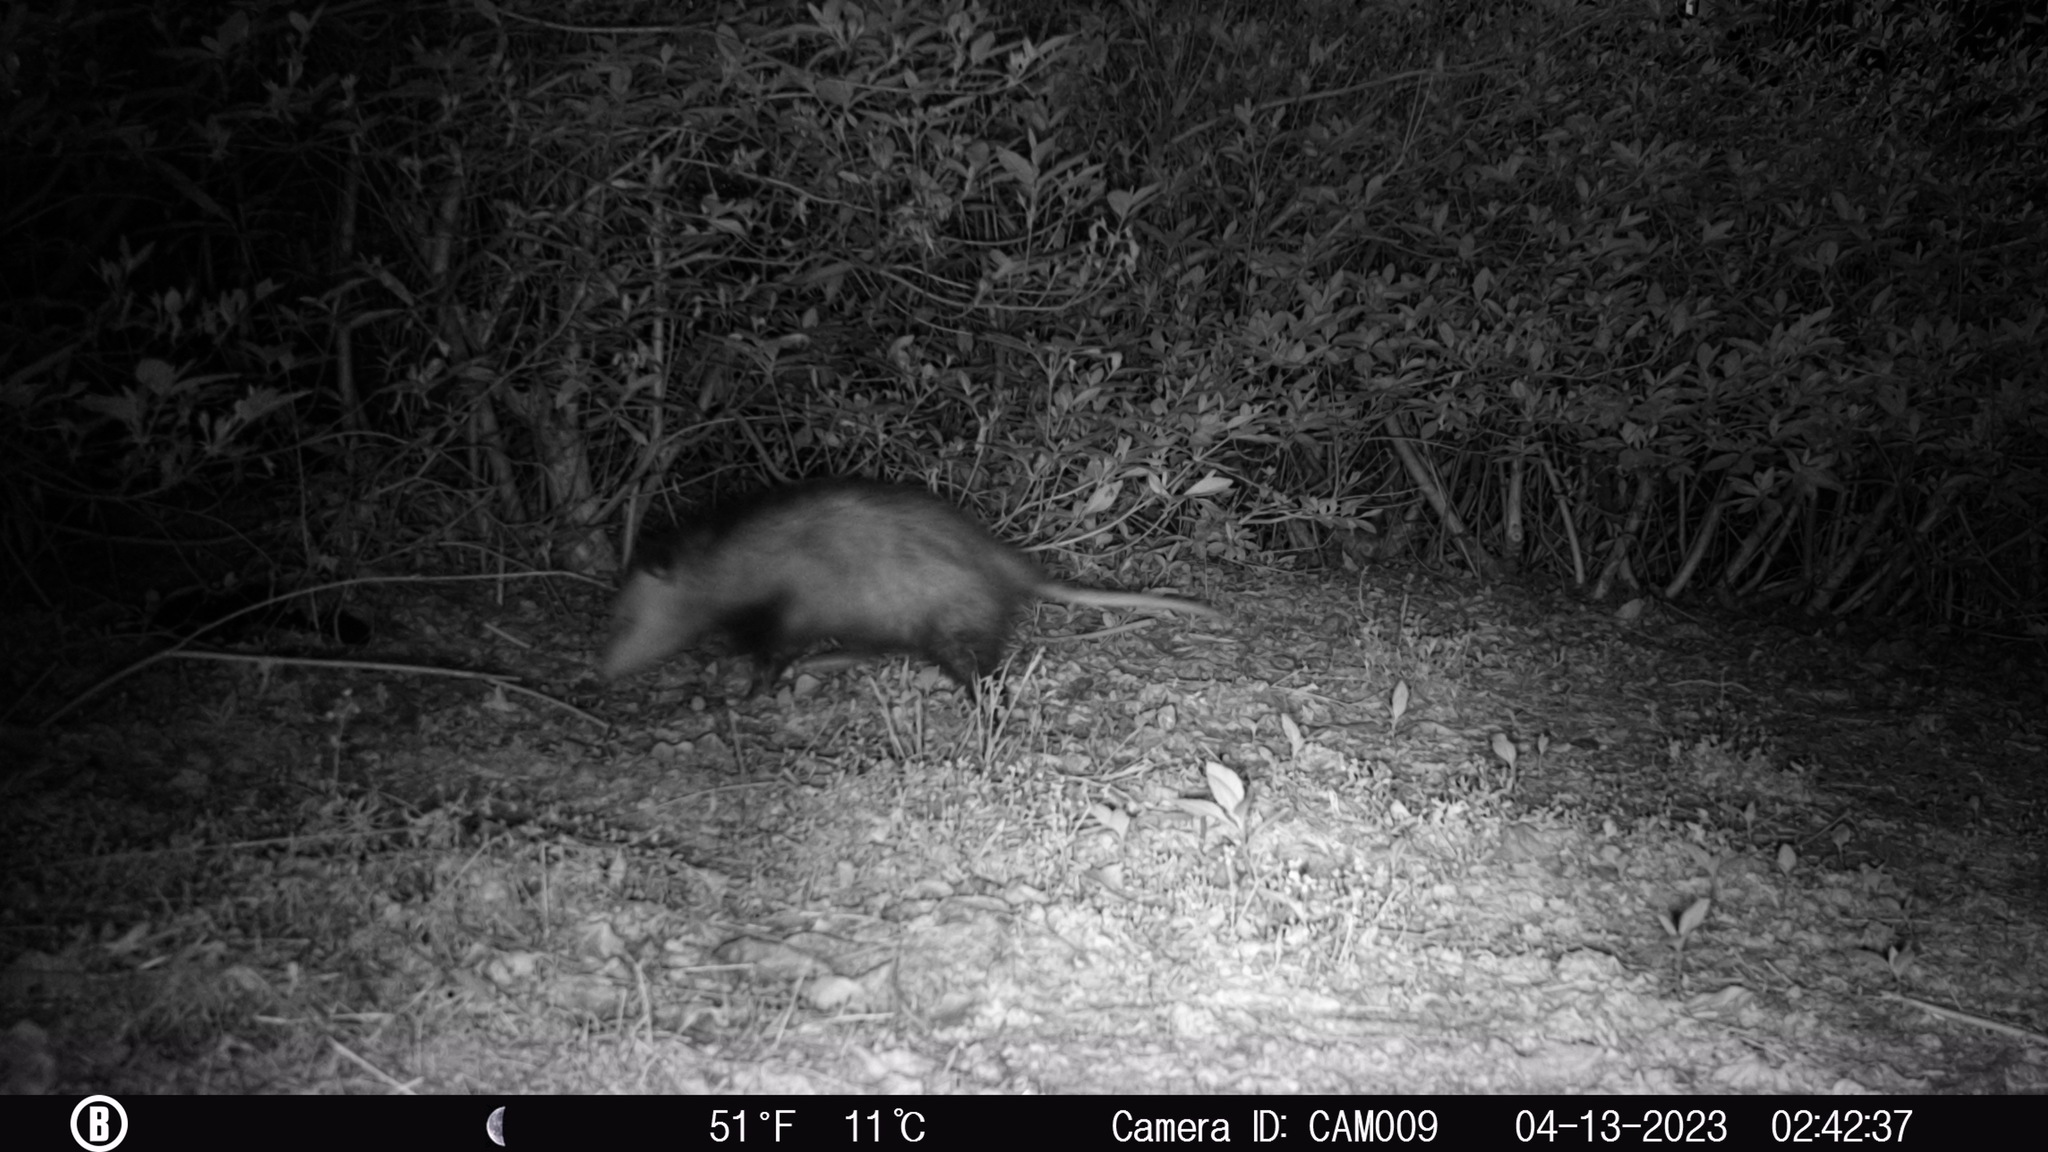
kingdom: Animalia
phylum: Chordata
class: Mammalia
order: Didelphimorphia
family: Didelphidae
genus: Didelphis
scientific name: Didelphis virginiana
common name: Virginia opossum
